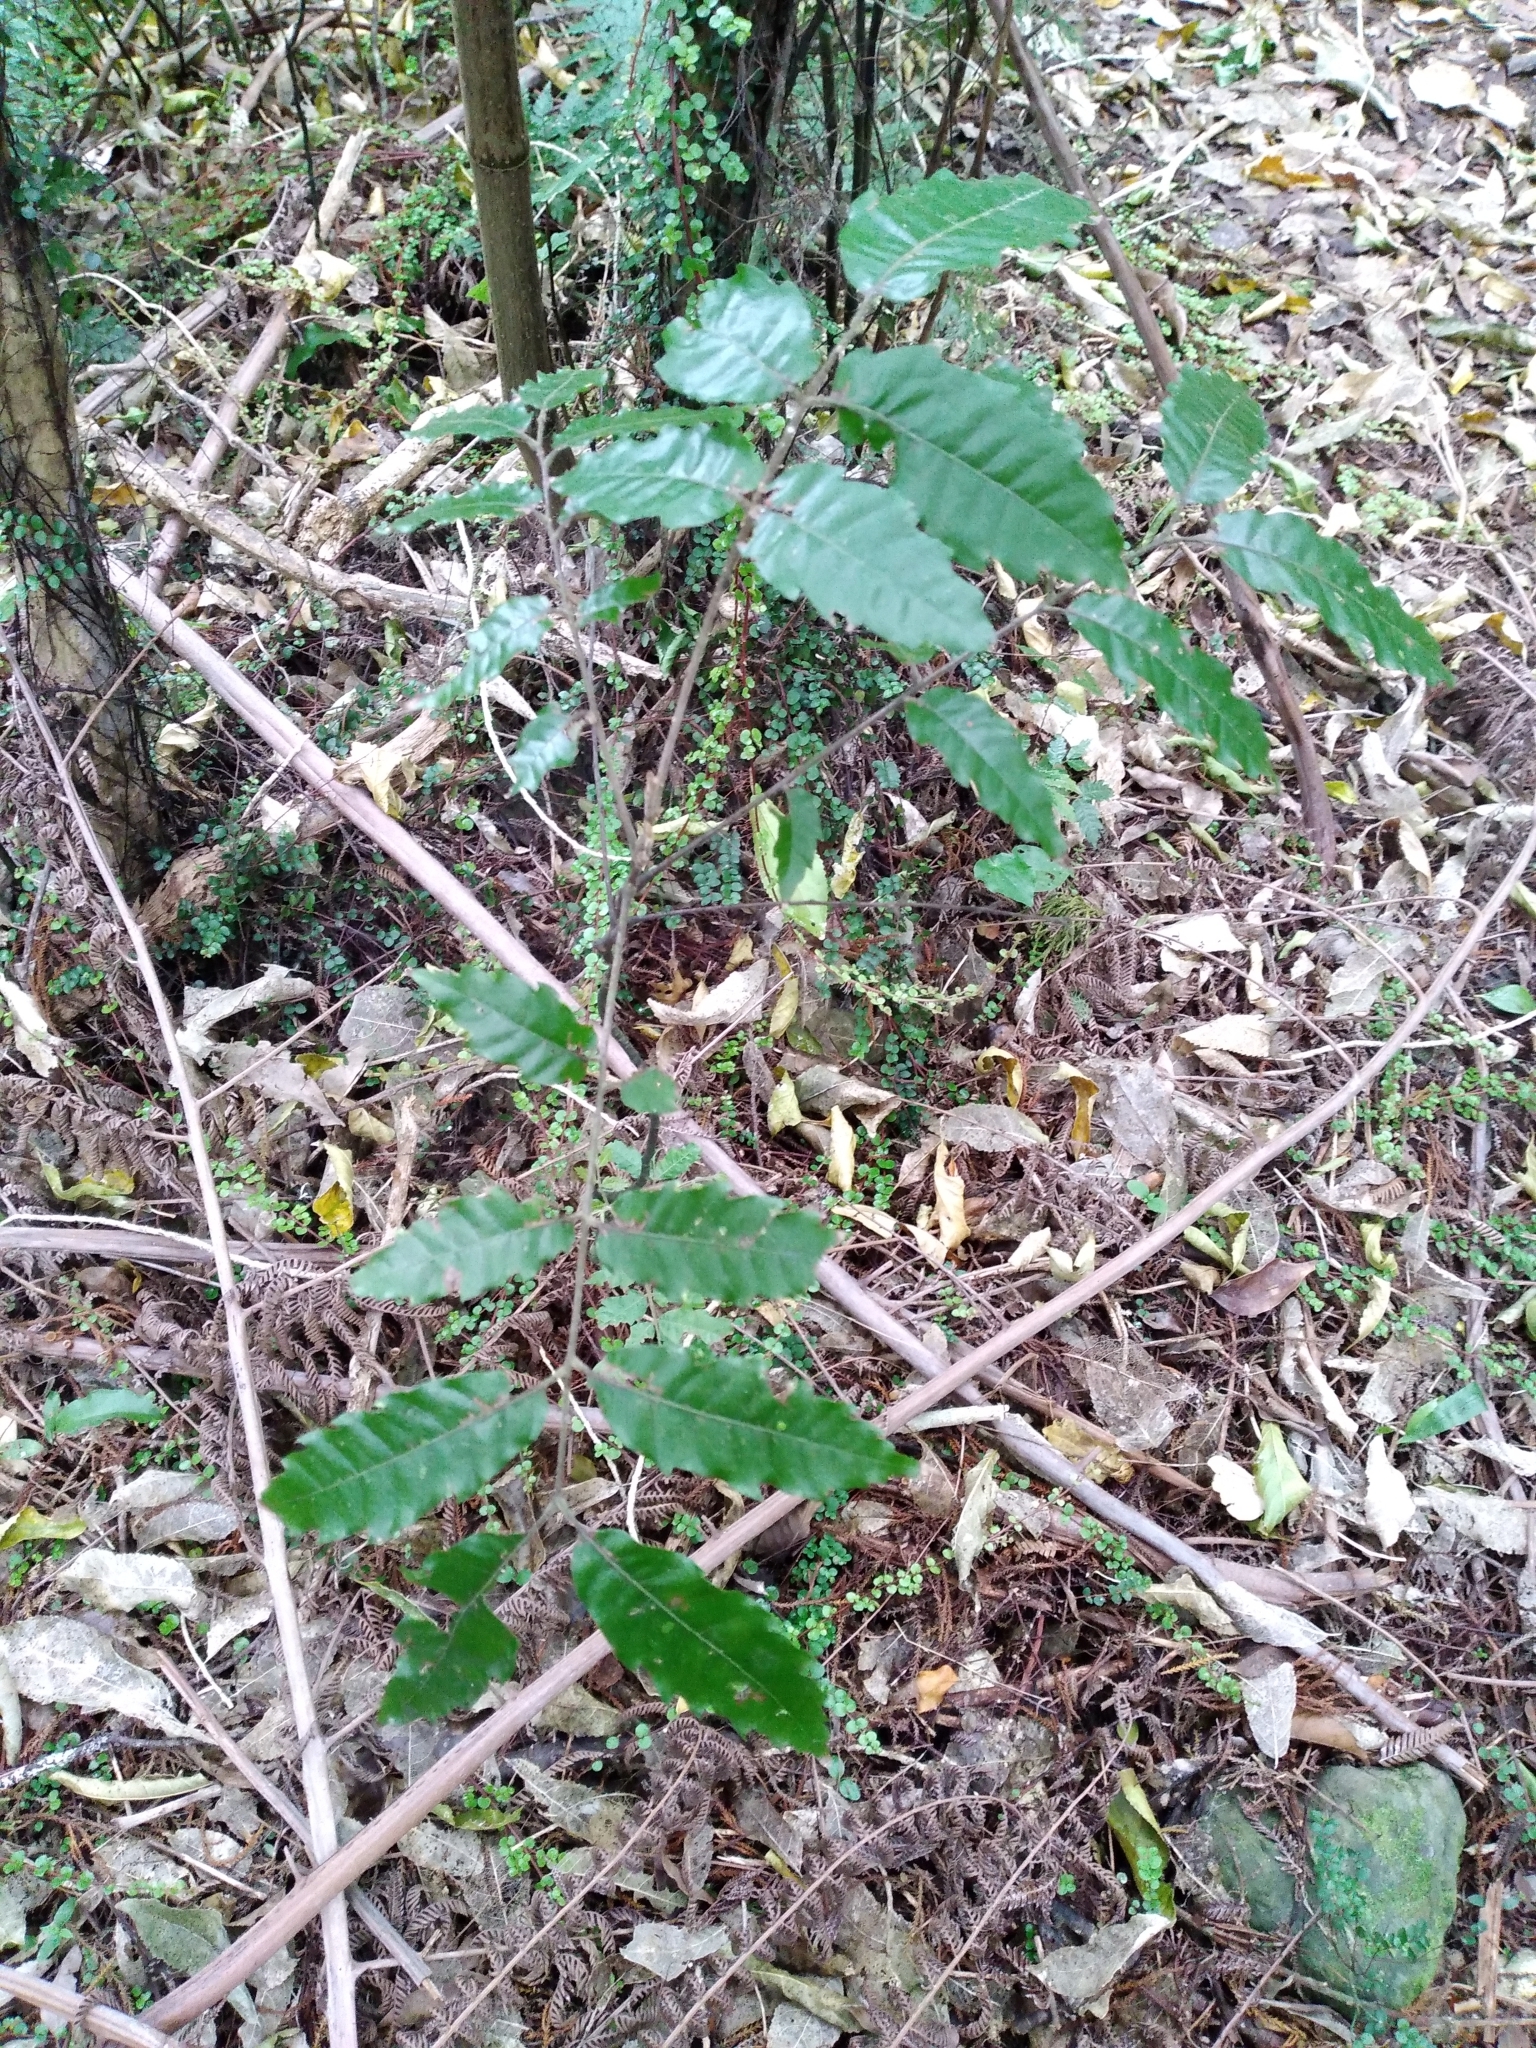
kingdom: Plantae
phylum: Tracheophyta
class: Magnoliopsida
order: Sapindales
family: Sapindaceae
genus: Alectryon
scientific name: Alectryon excelsus
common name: Three kings titoki
